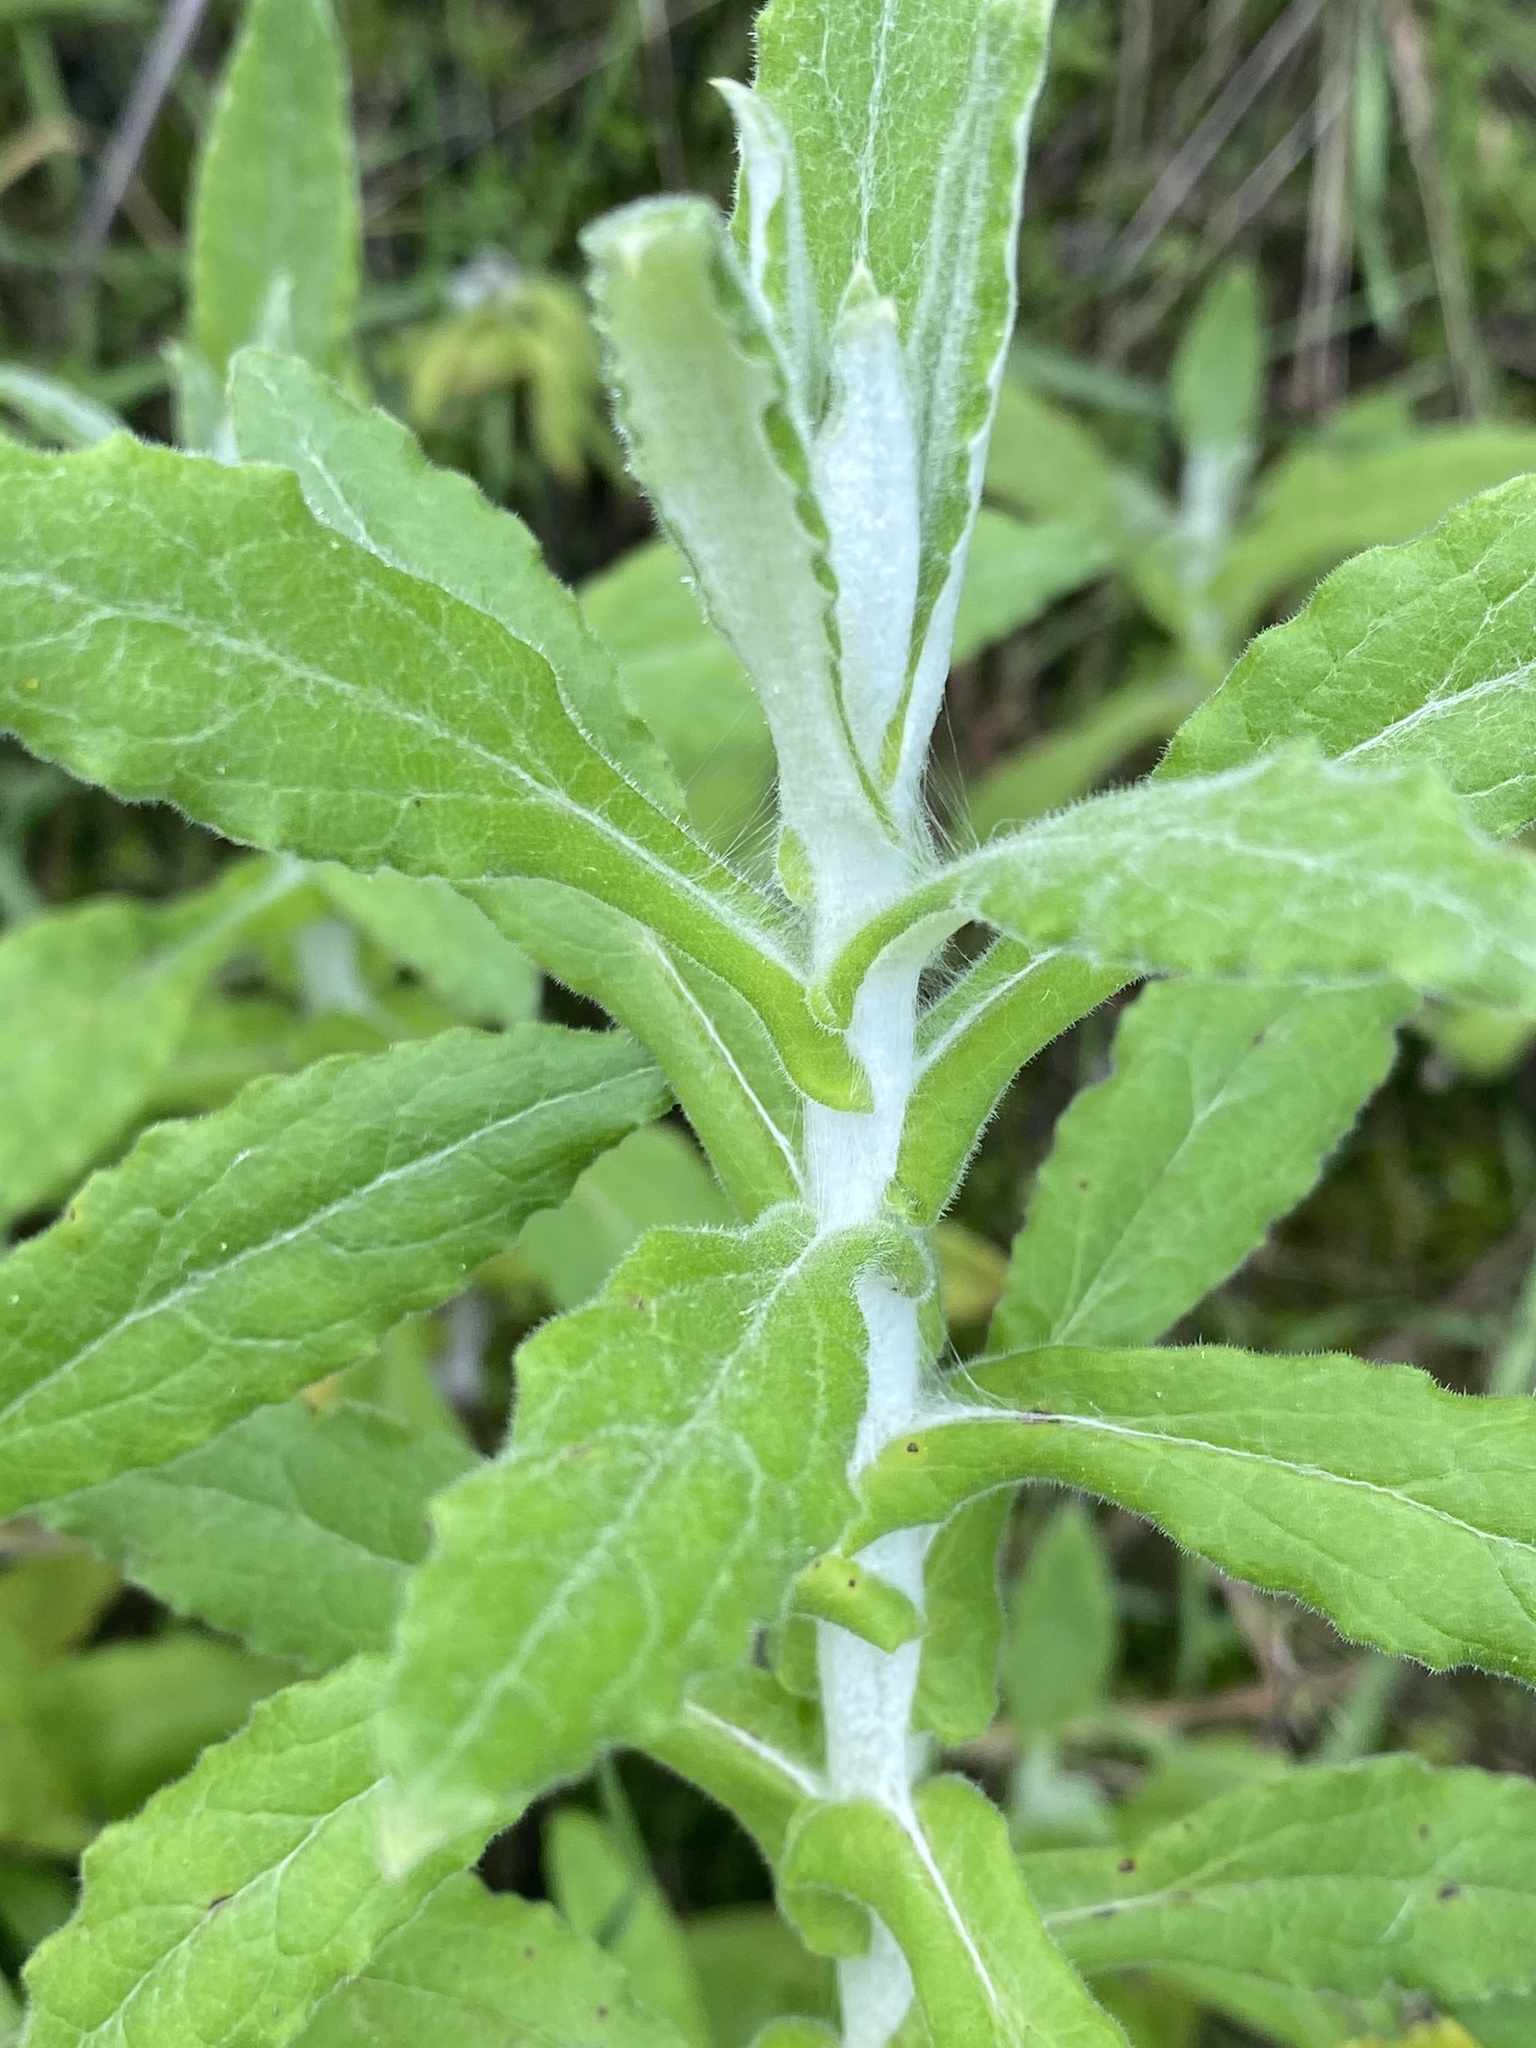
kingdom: Plantae
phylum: Tracheophyta
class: Magnoliopsida
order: Asterales
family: Asteraceae
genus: Pseudognaphalium
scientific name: Pseudognaphalium biolettii
